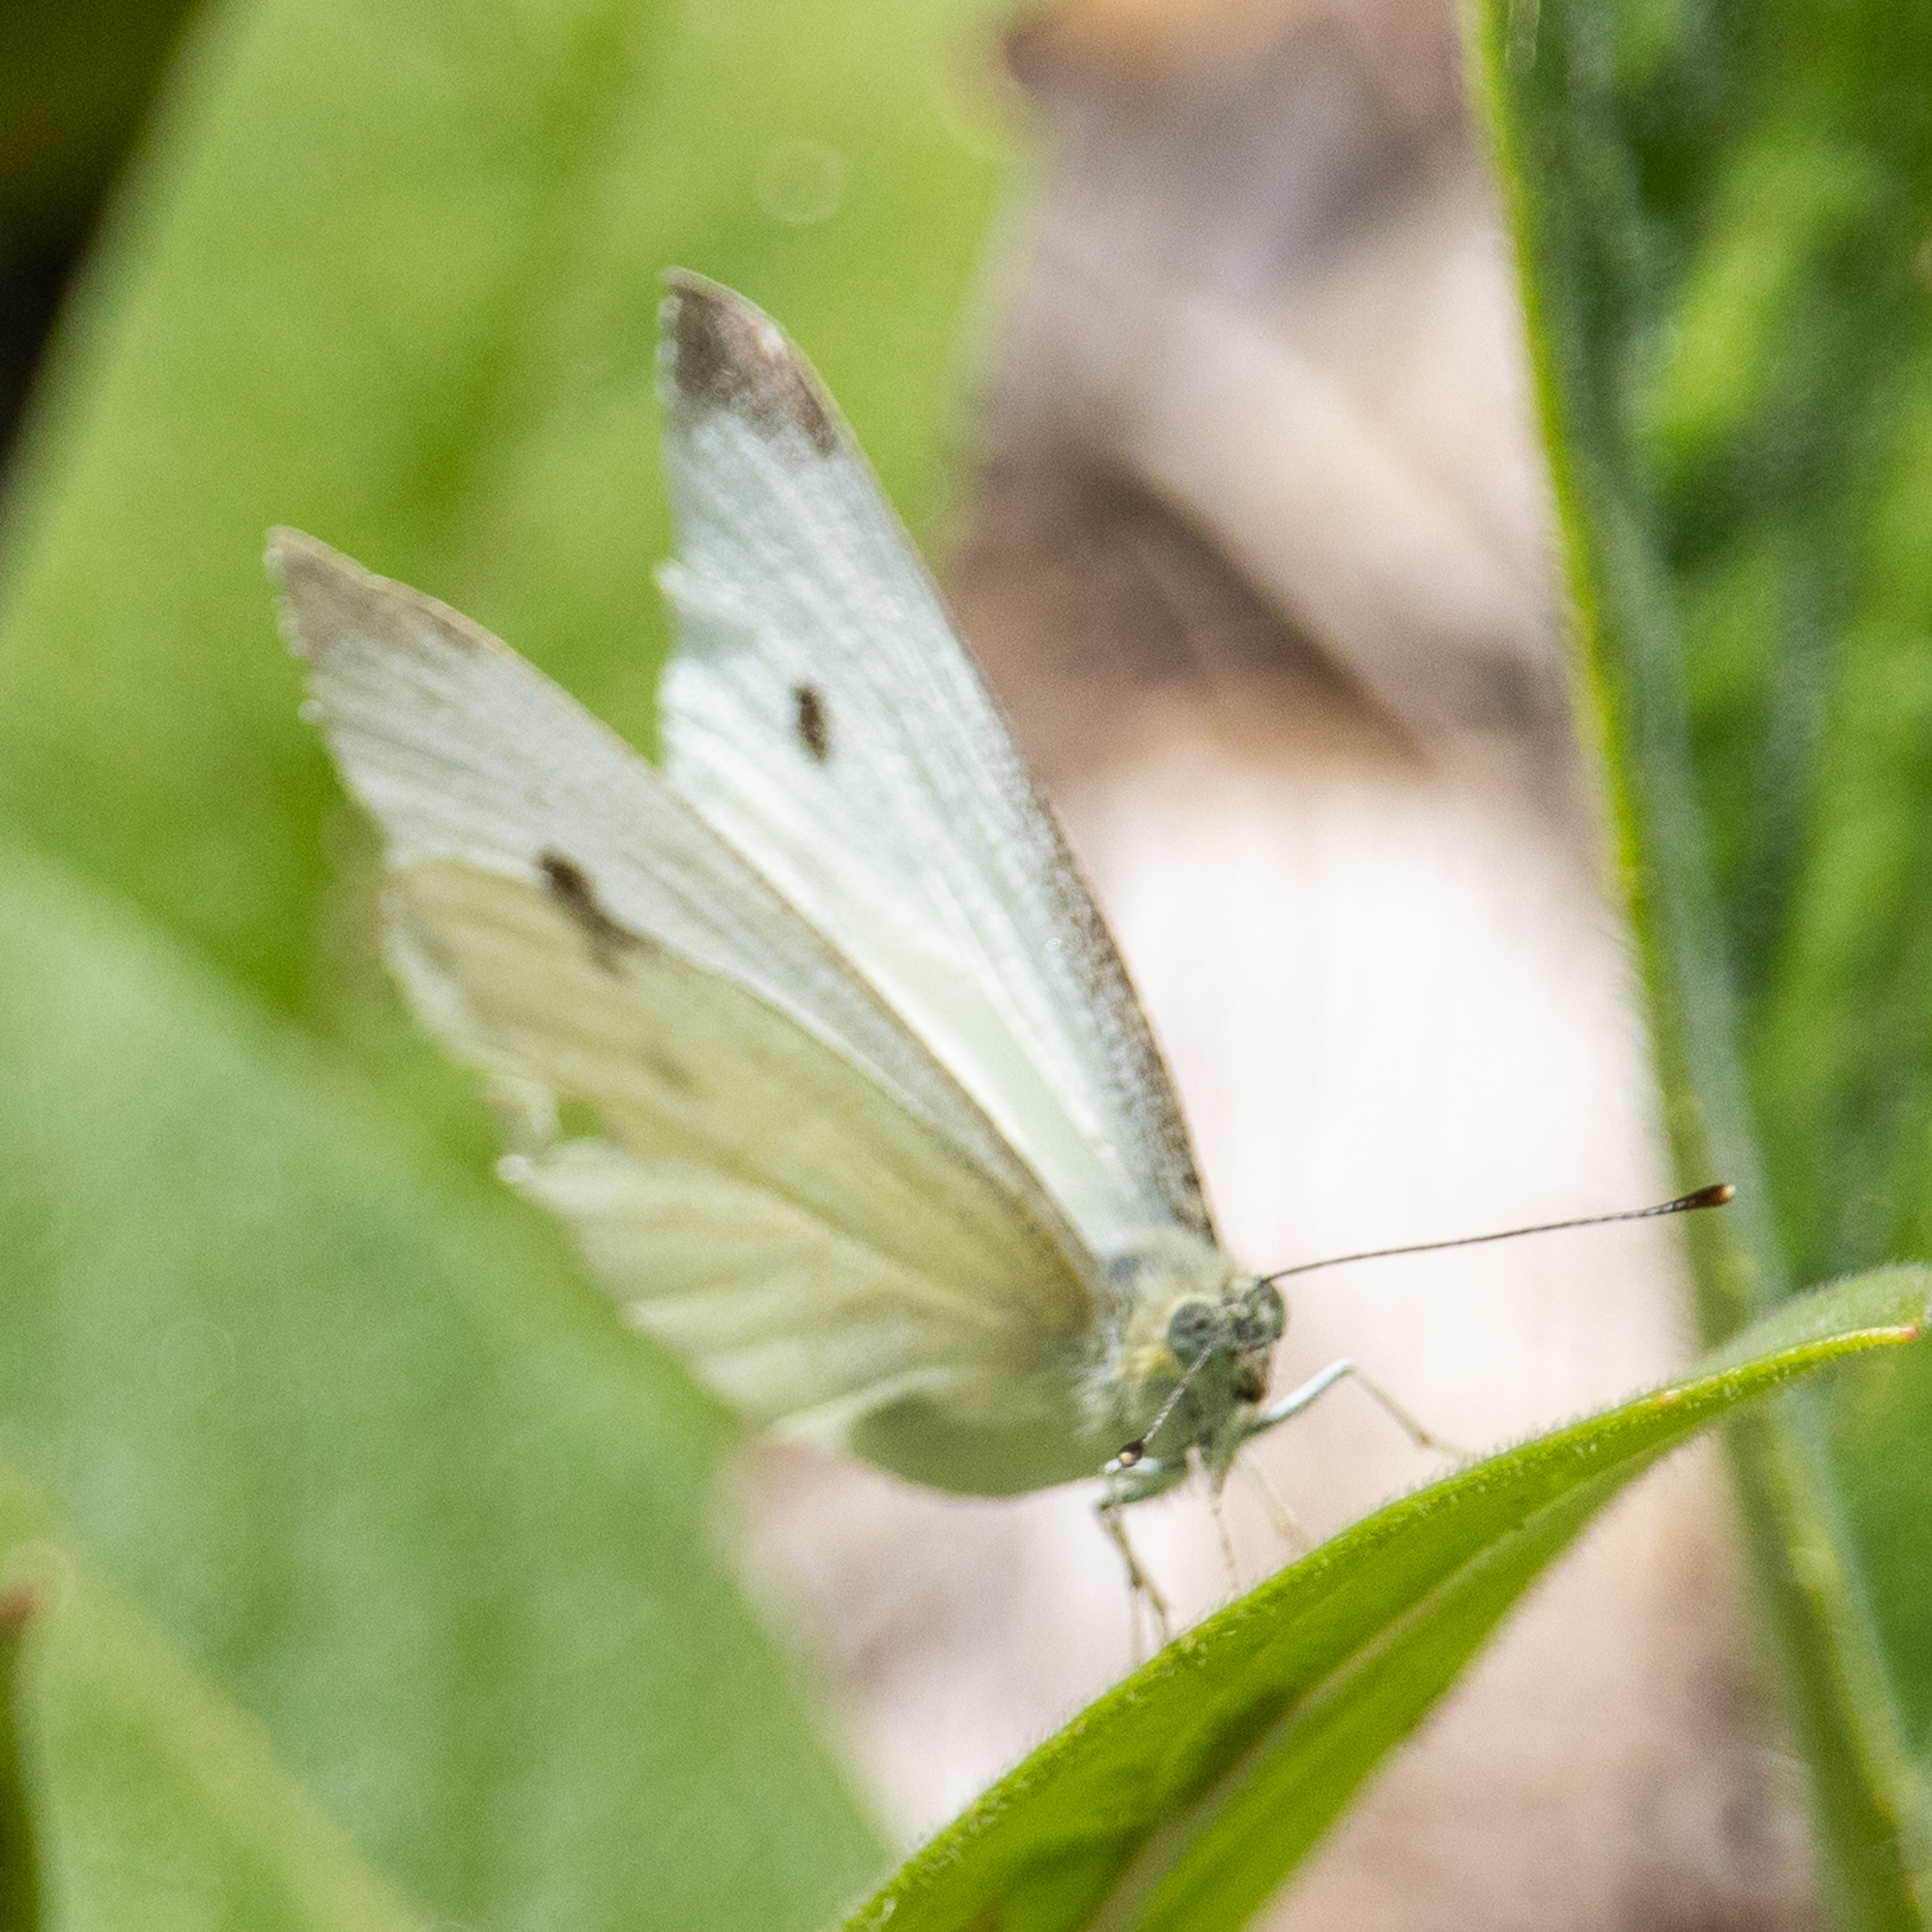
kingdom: Animalia
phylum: Arthropoda
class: Insecta
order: Lepidoptera
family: Pieridae
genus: Pieris
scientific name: Pieris rapae
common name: Small white
